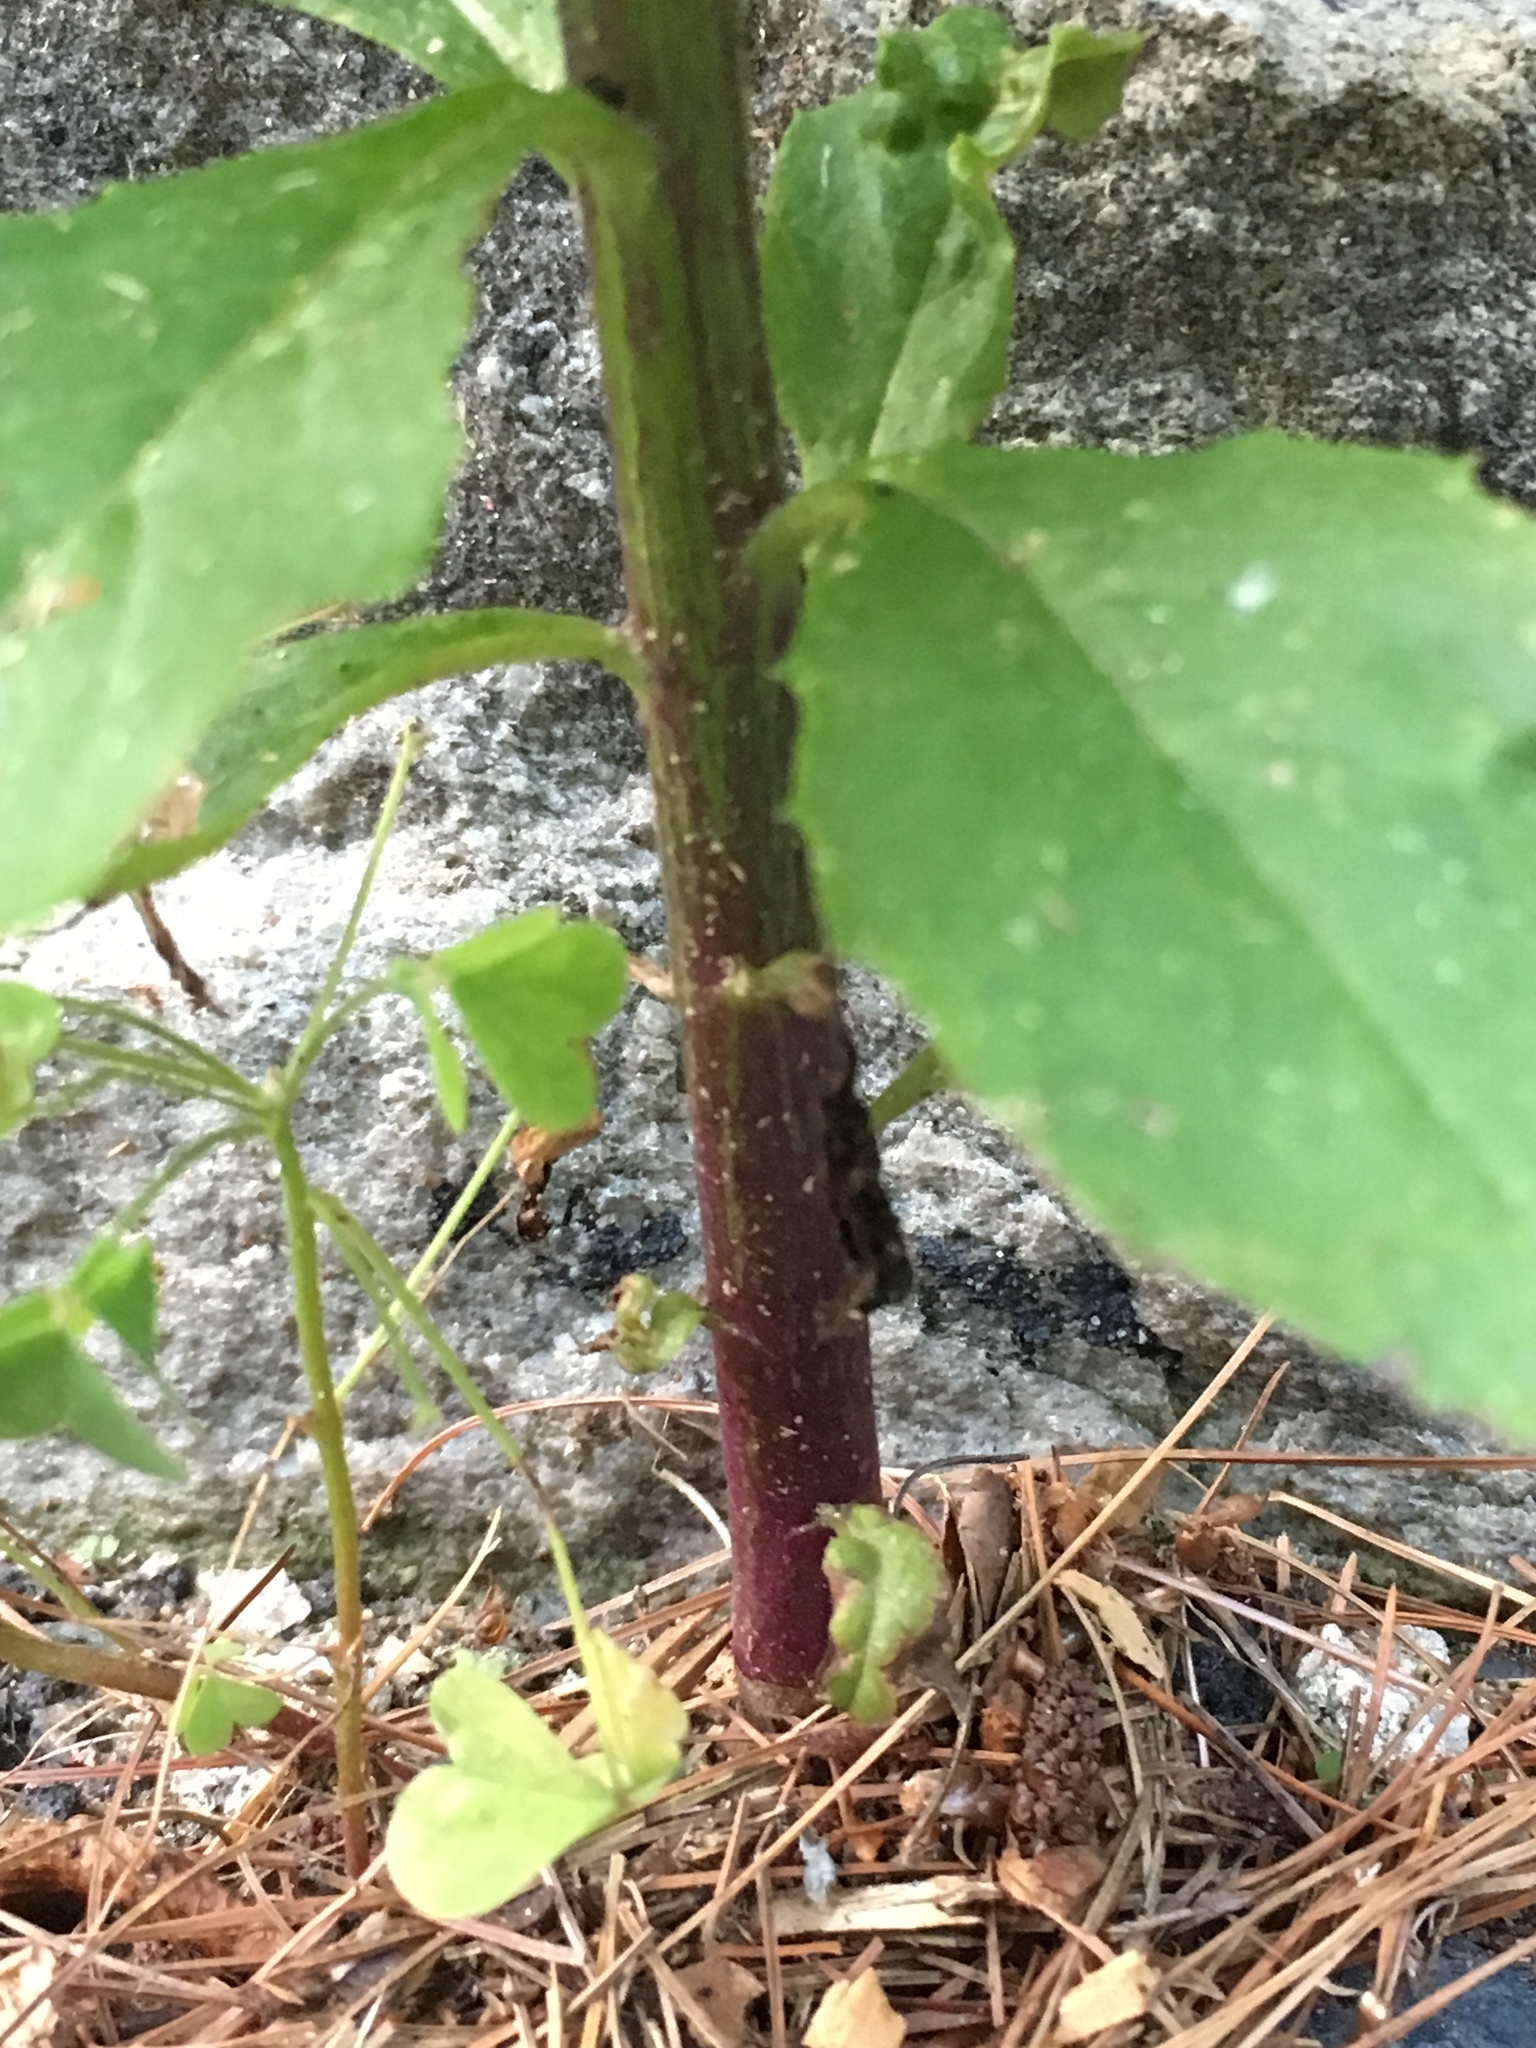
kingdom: Plantae
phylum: Tracheophyta
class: Magnoliopsida
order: Asterales
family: Asteraceae
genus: Erechtites
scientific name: Erechtites hieraciifolius
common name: American burnweed
